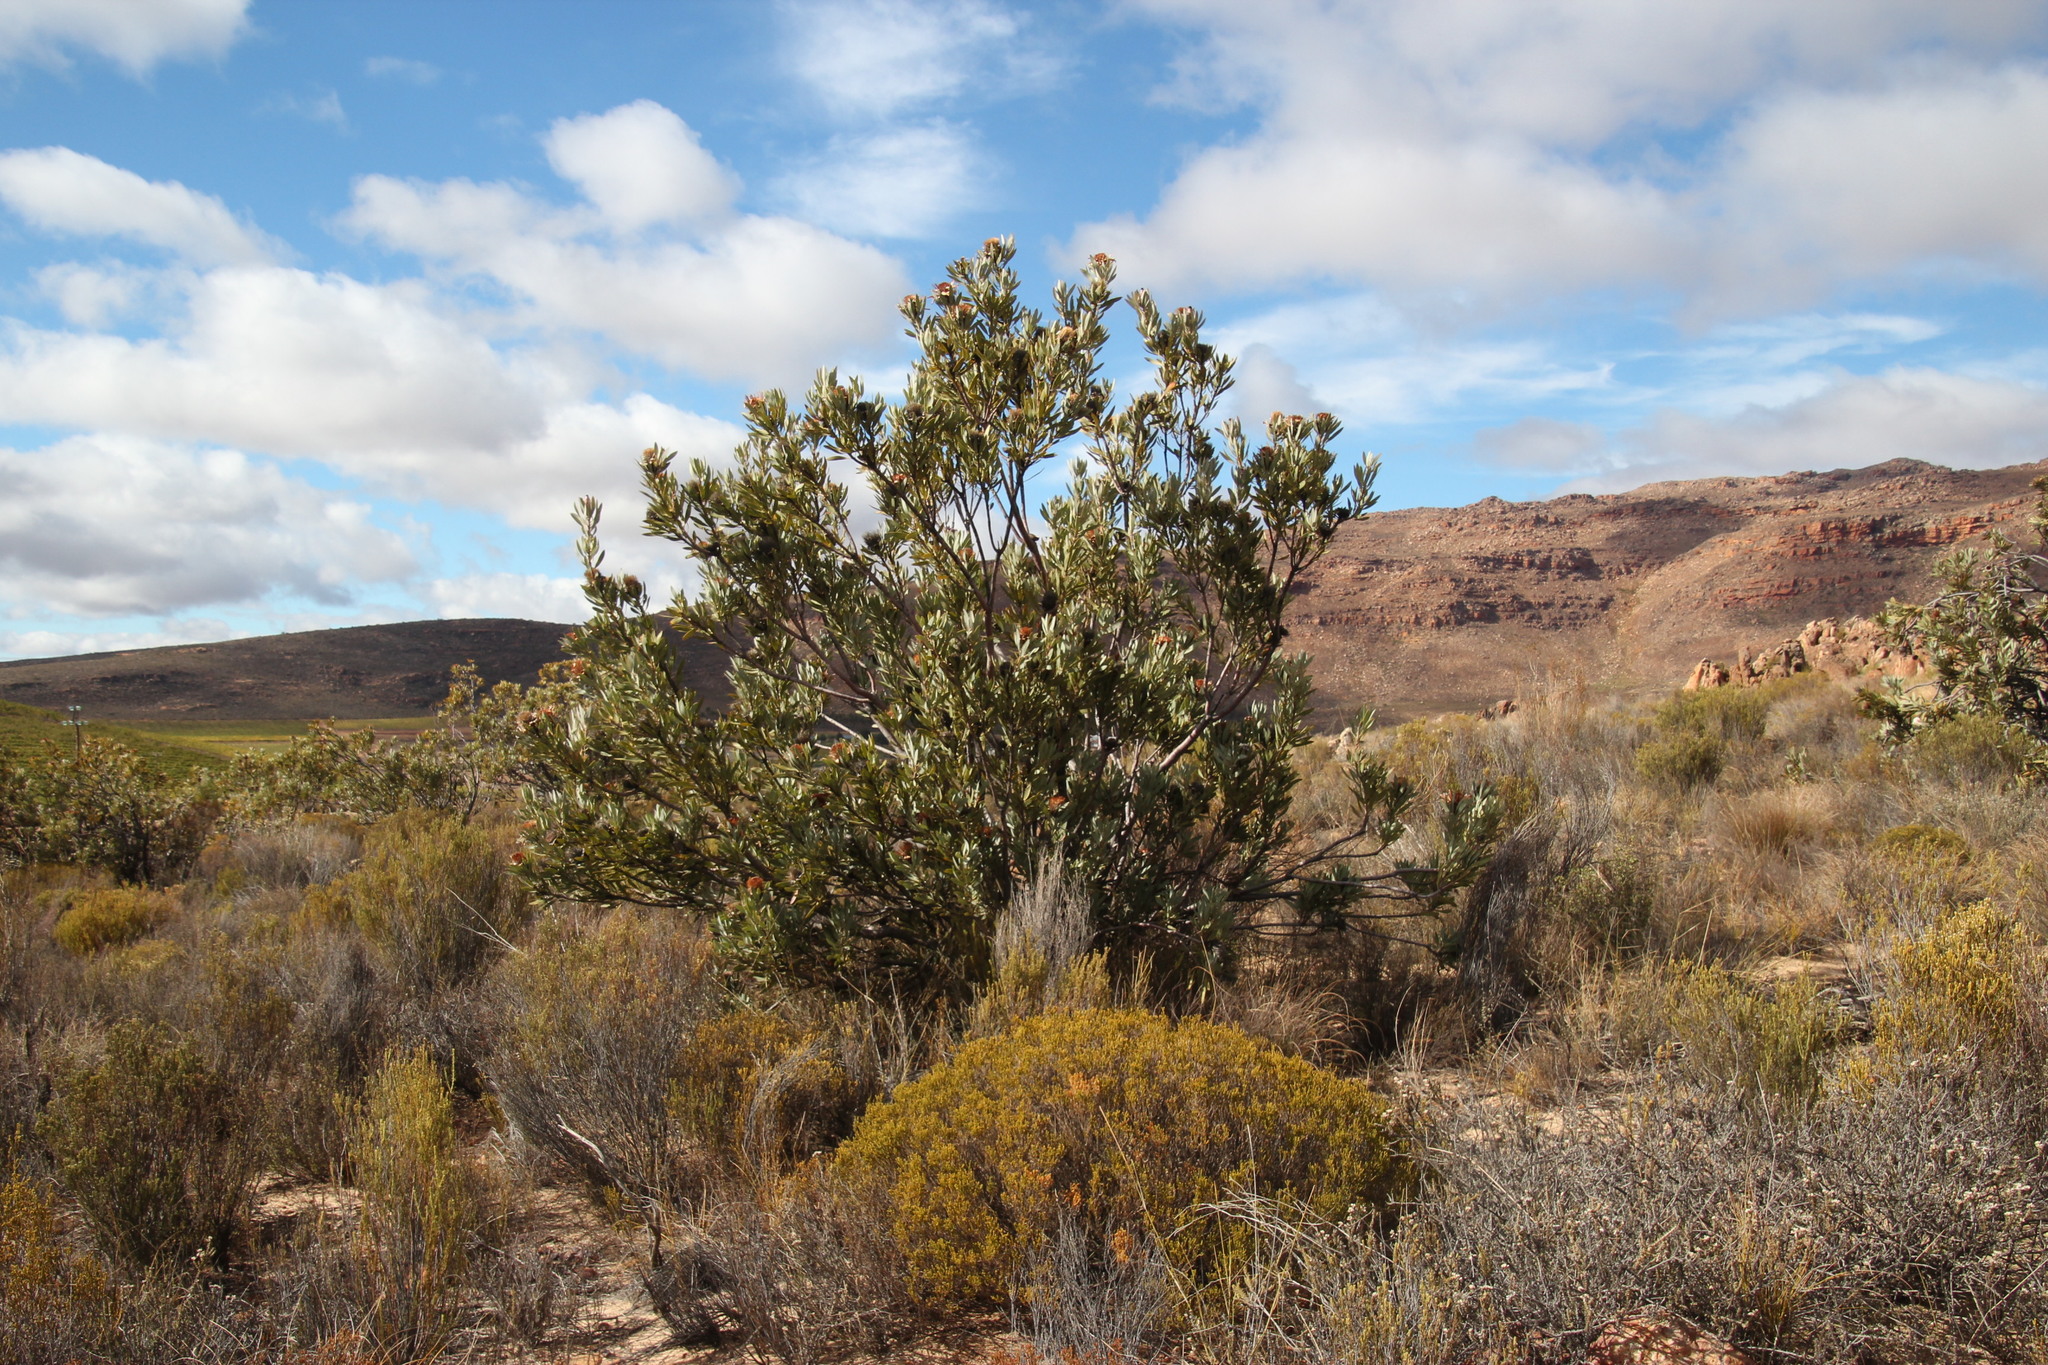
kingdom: Plantae
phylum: Tracheophyta
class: Magnoliopsida
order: Proteales
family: Proteaceae
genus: Protea
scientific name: Protea laurifolia
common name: Grey-leaf sugarbsh
